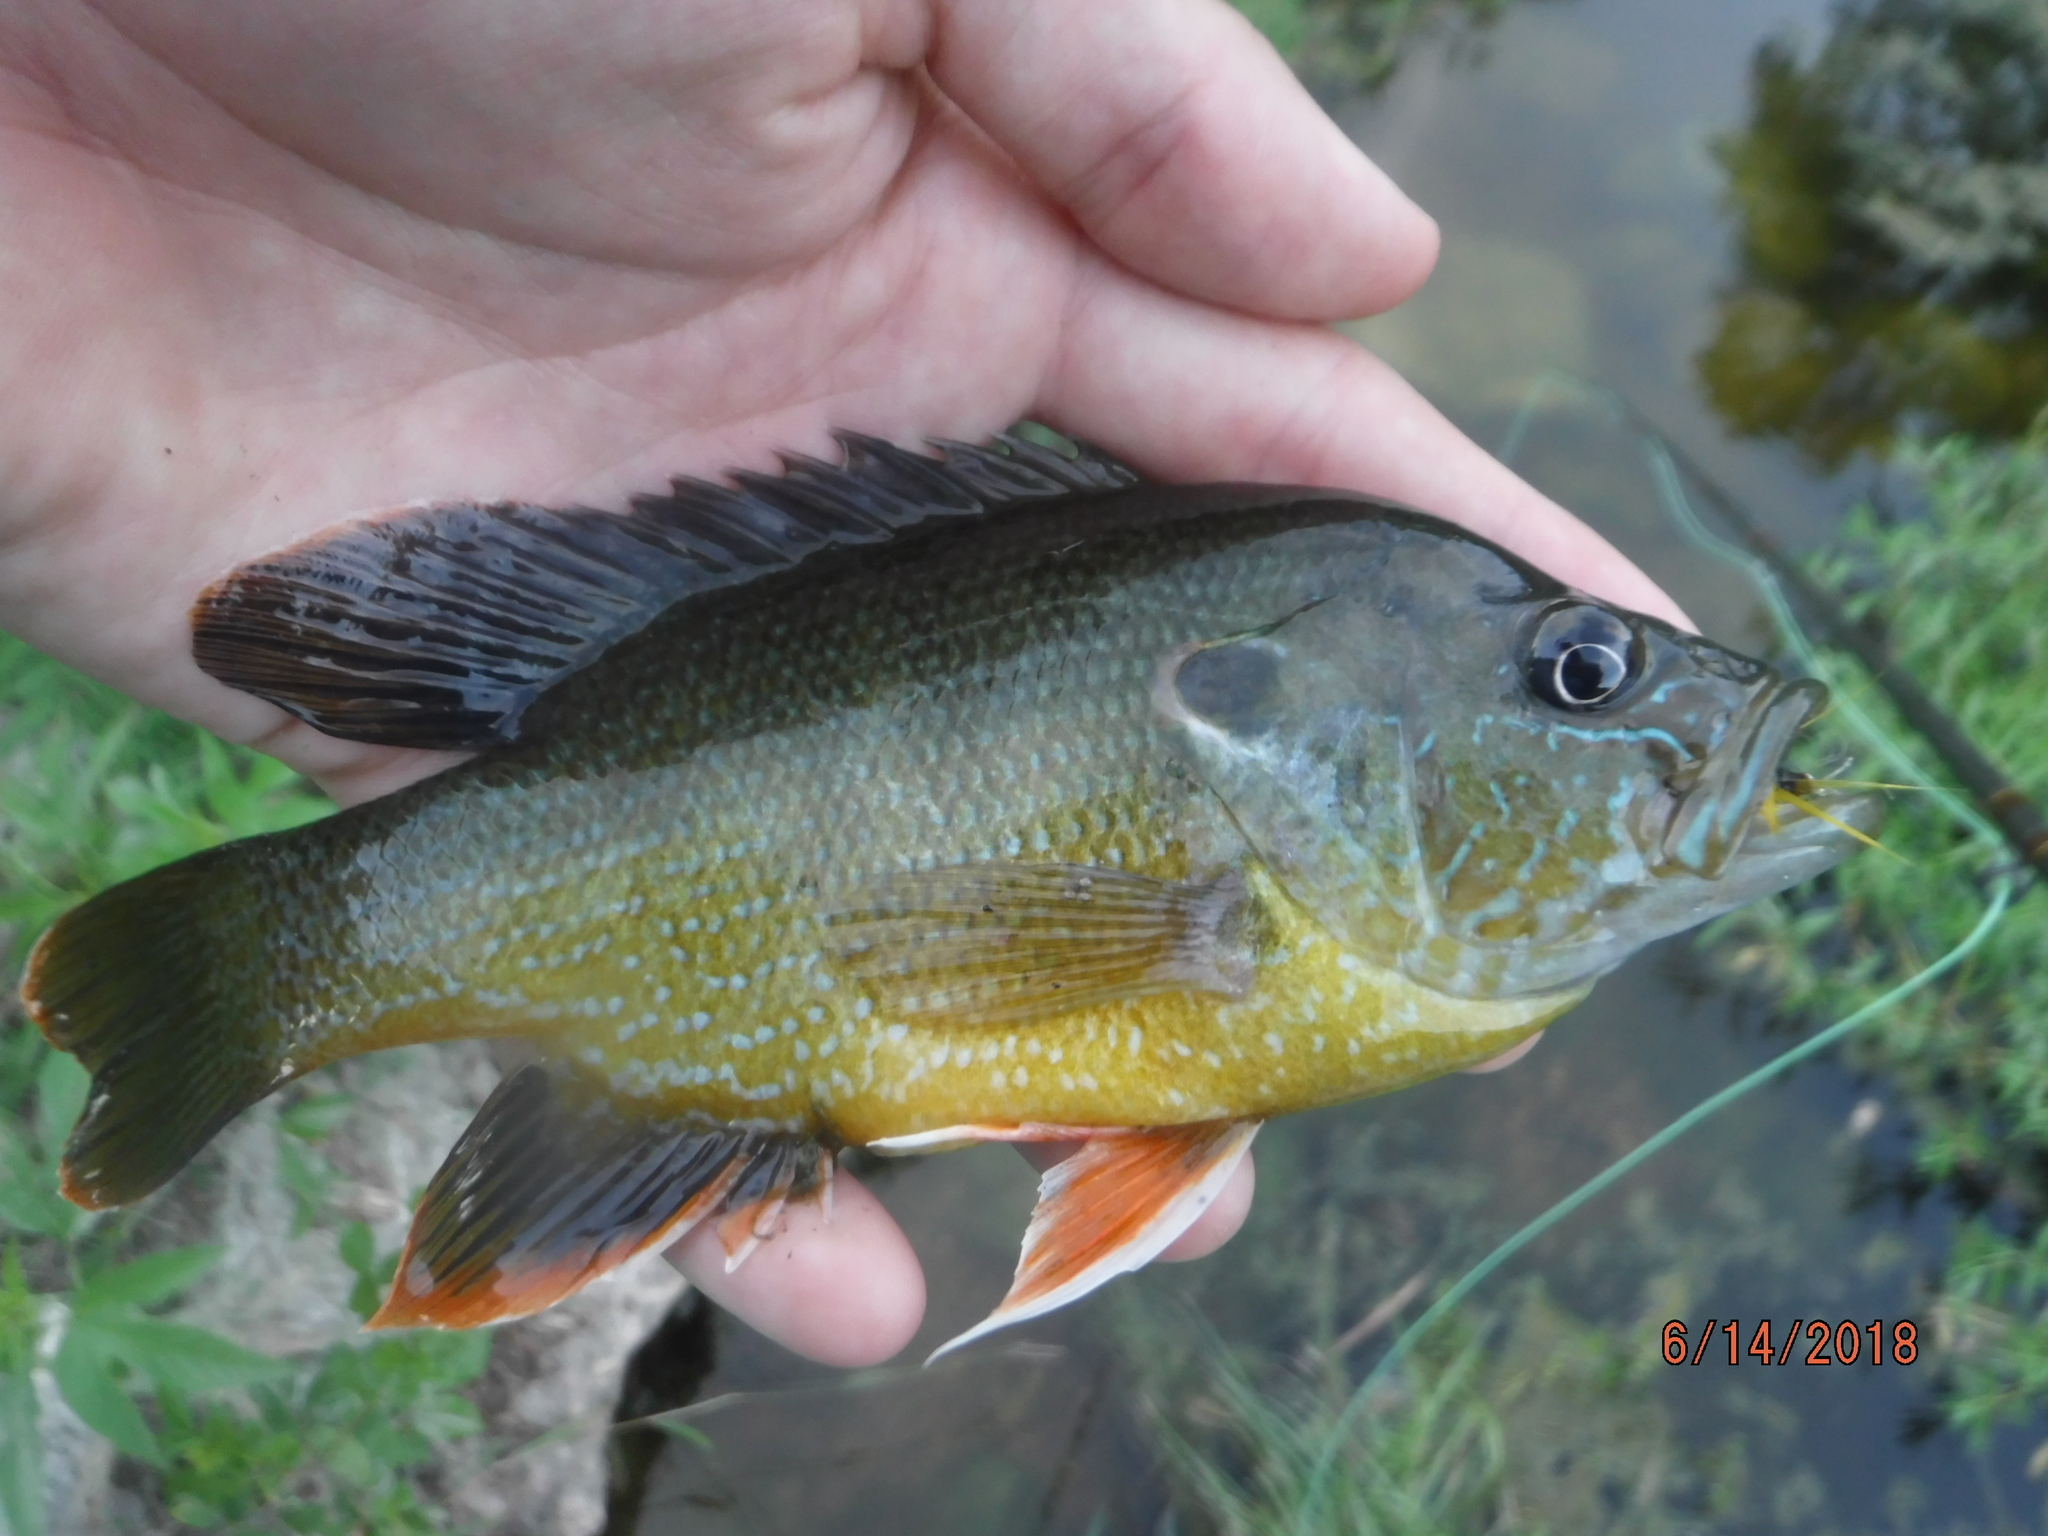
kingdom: Animalia
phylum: Chordata
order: Perciformes
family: Centrarchidae
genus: Lepomis
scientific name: Lepomis cyanellus
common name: Green sunfish
